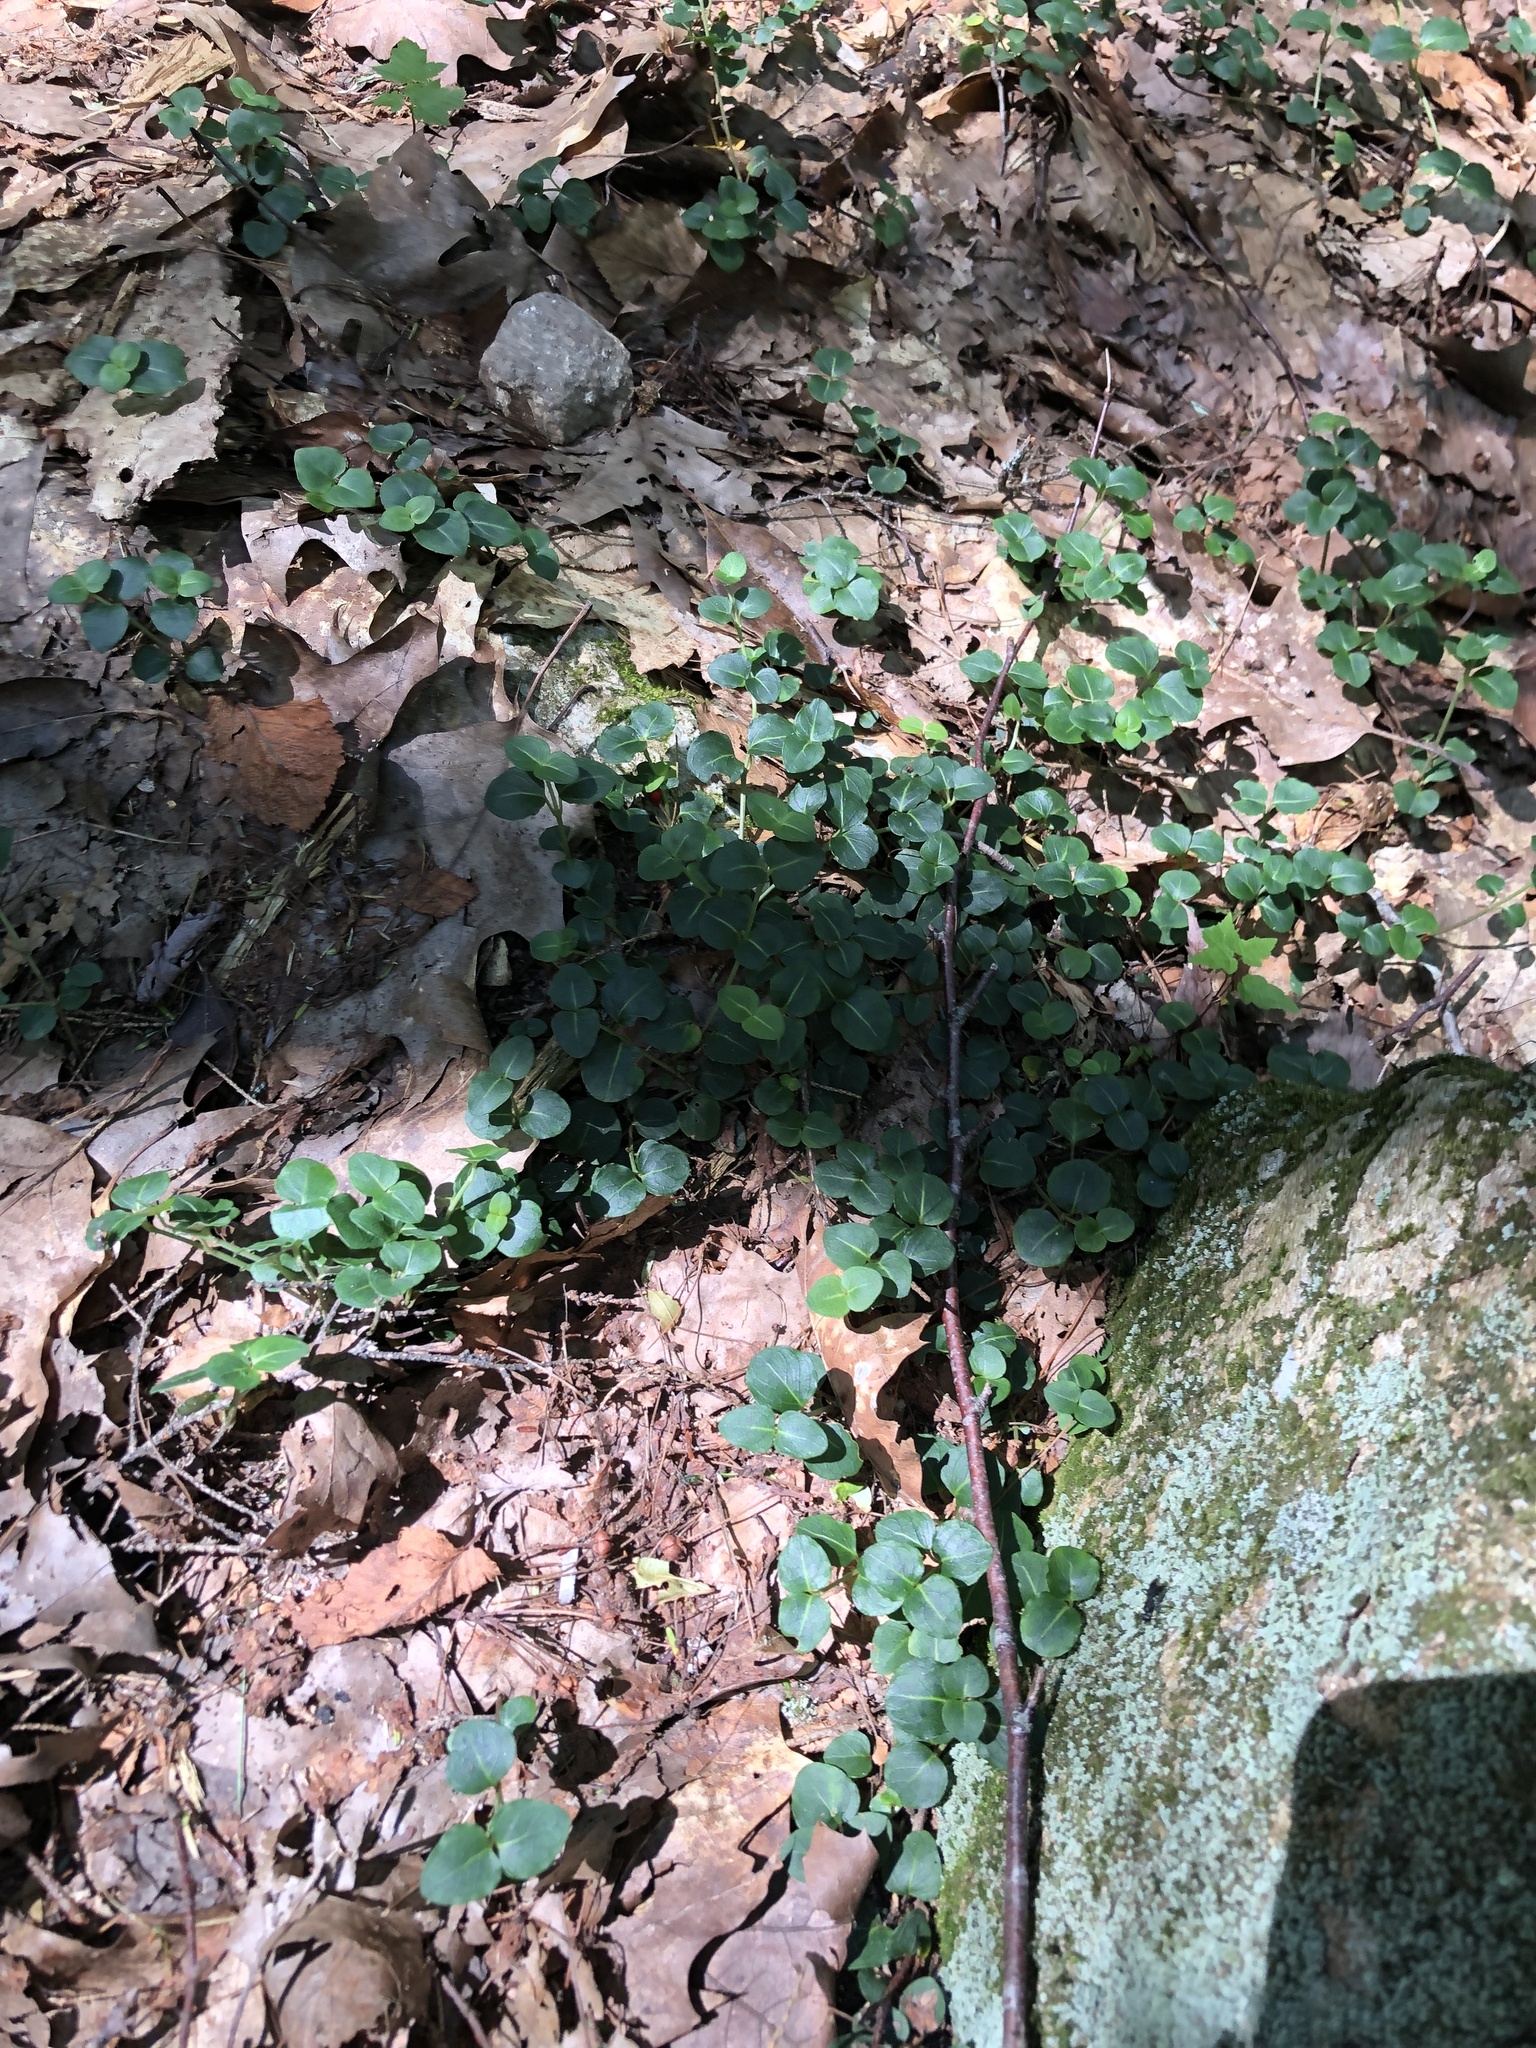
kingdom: Plantae
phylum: Tracheophyta
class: Magnoliopsida
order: Gentianales
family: Rubiaceae
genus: Mitchella
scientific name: Mitchella repens
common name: Partridge-berry
